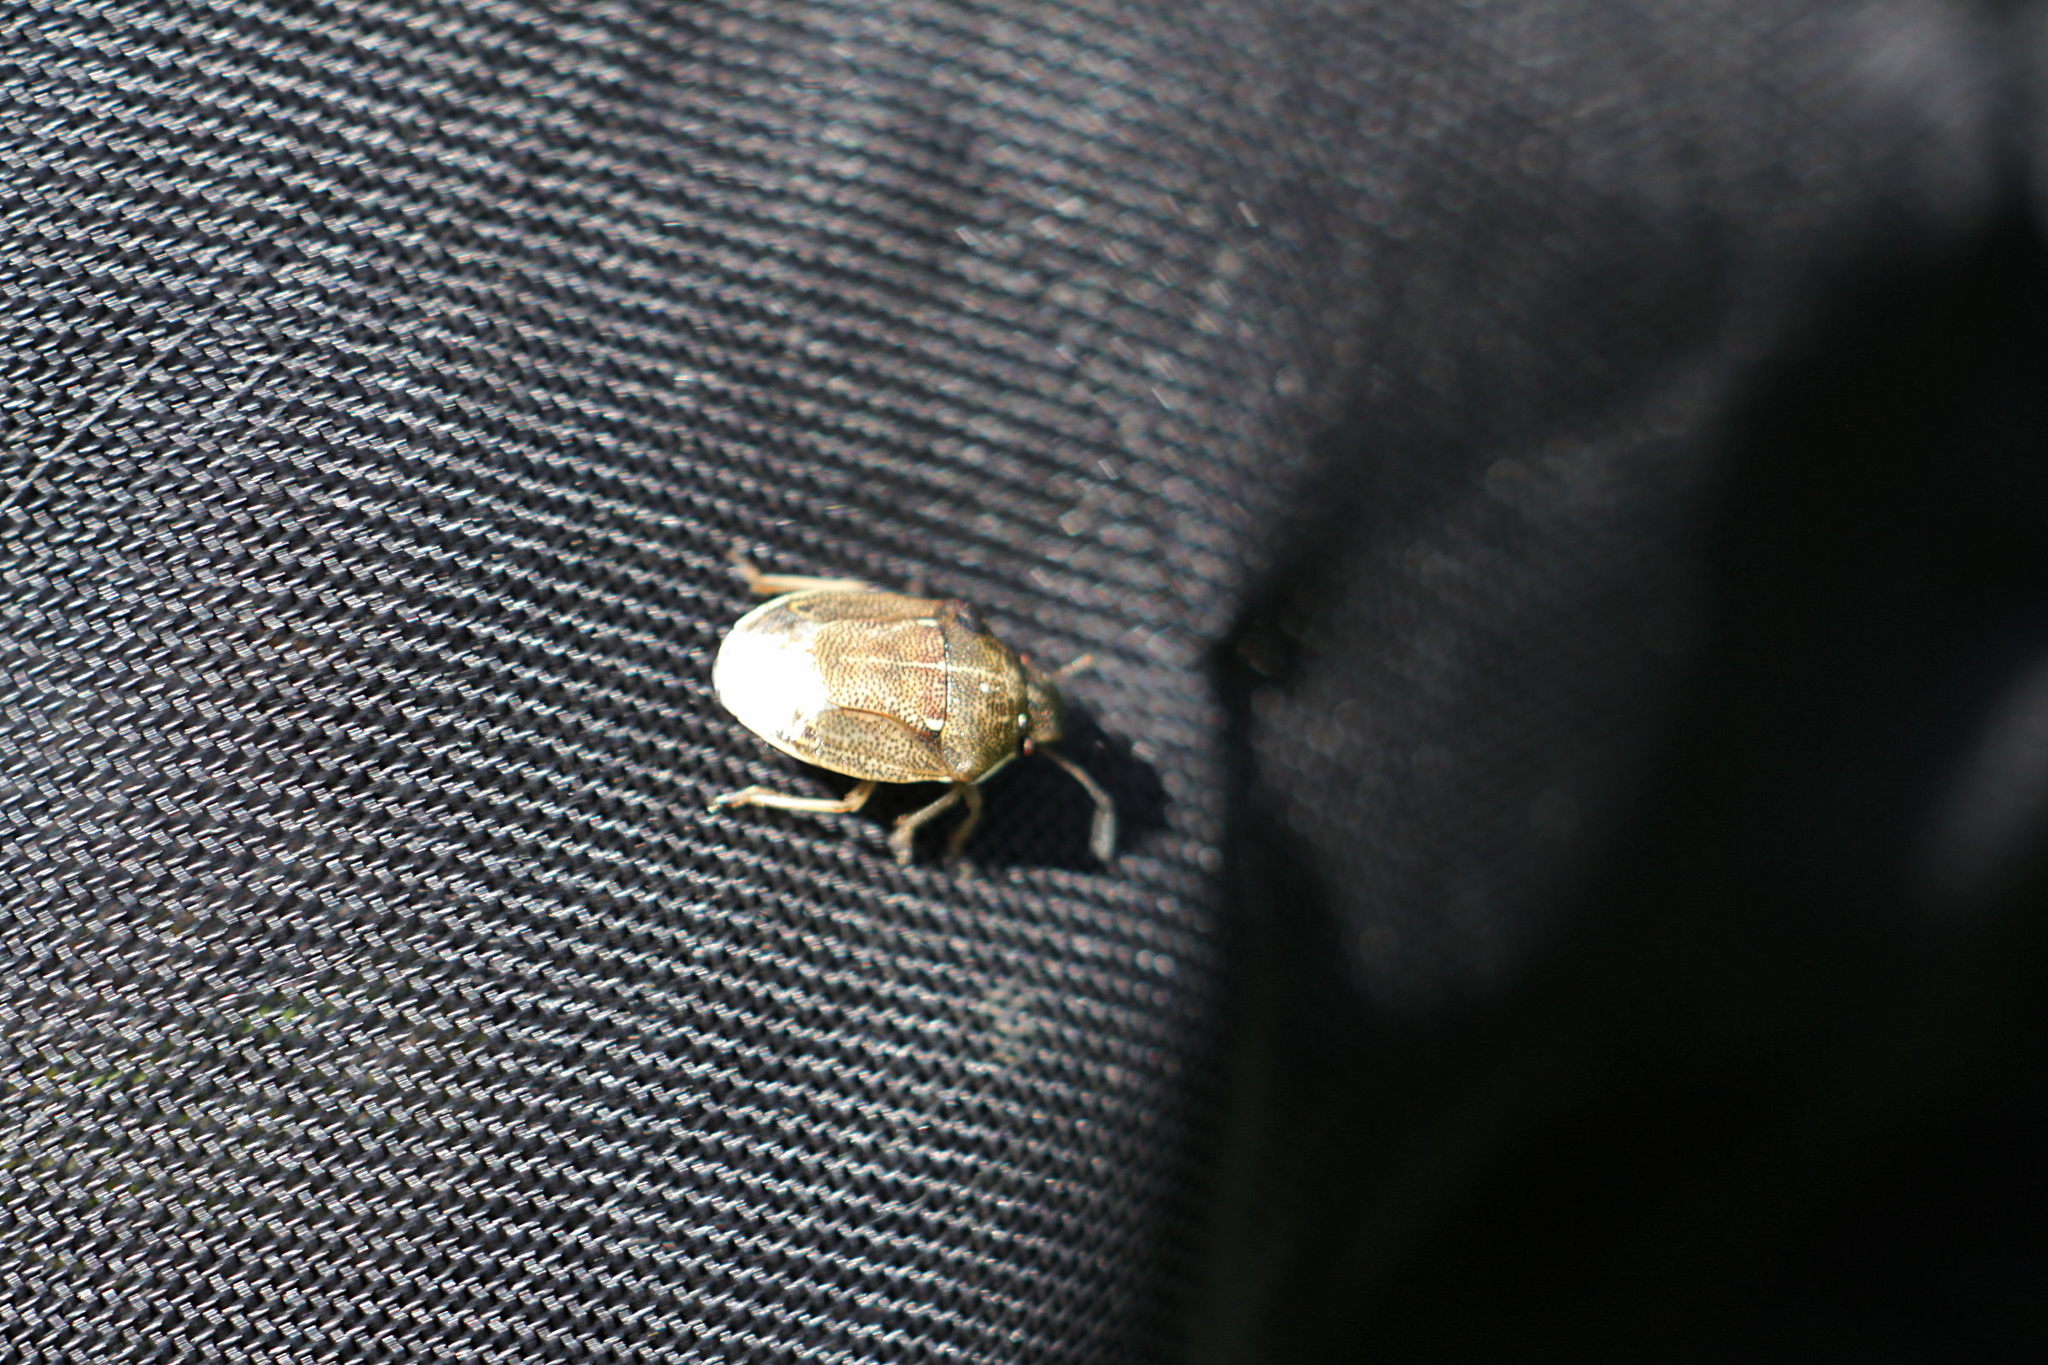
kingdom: Animalia
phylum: Arthropoda
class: Insecta
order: Hemiptera
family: Pentatomidae
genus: Neottiglossa
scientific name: Neottiglossa pusilla
